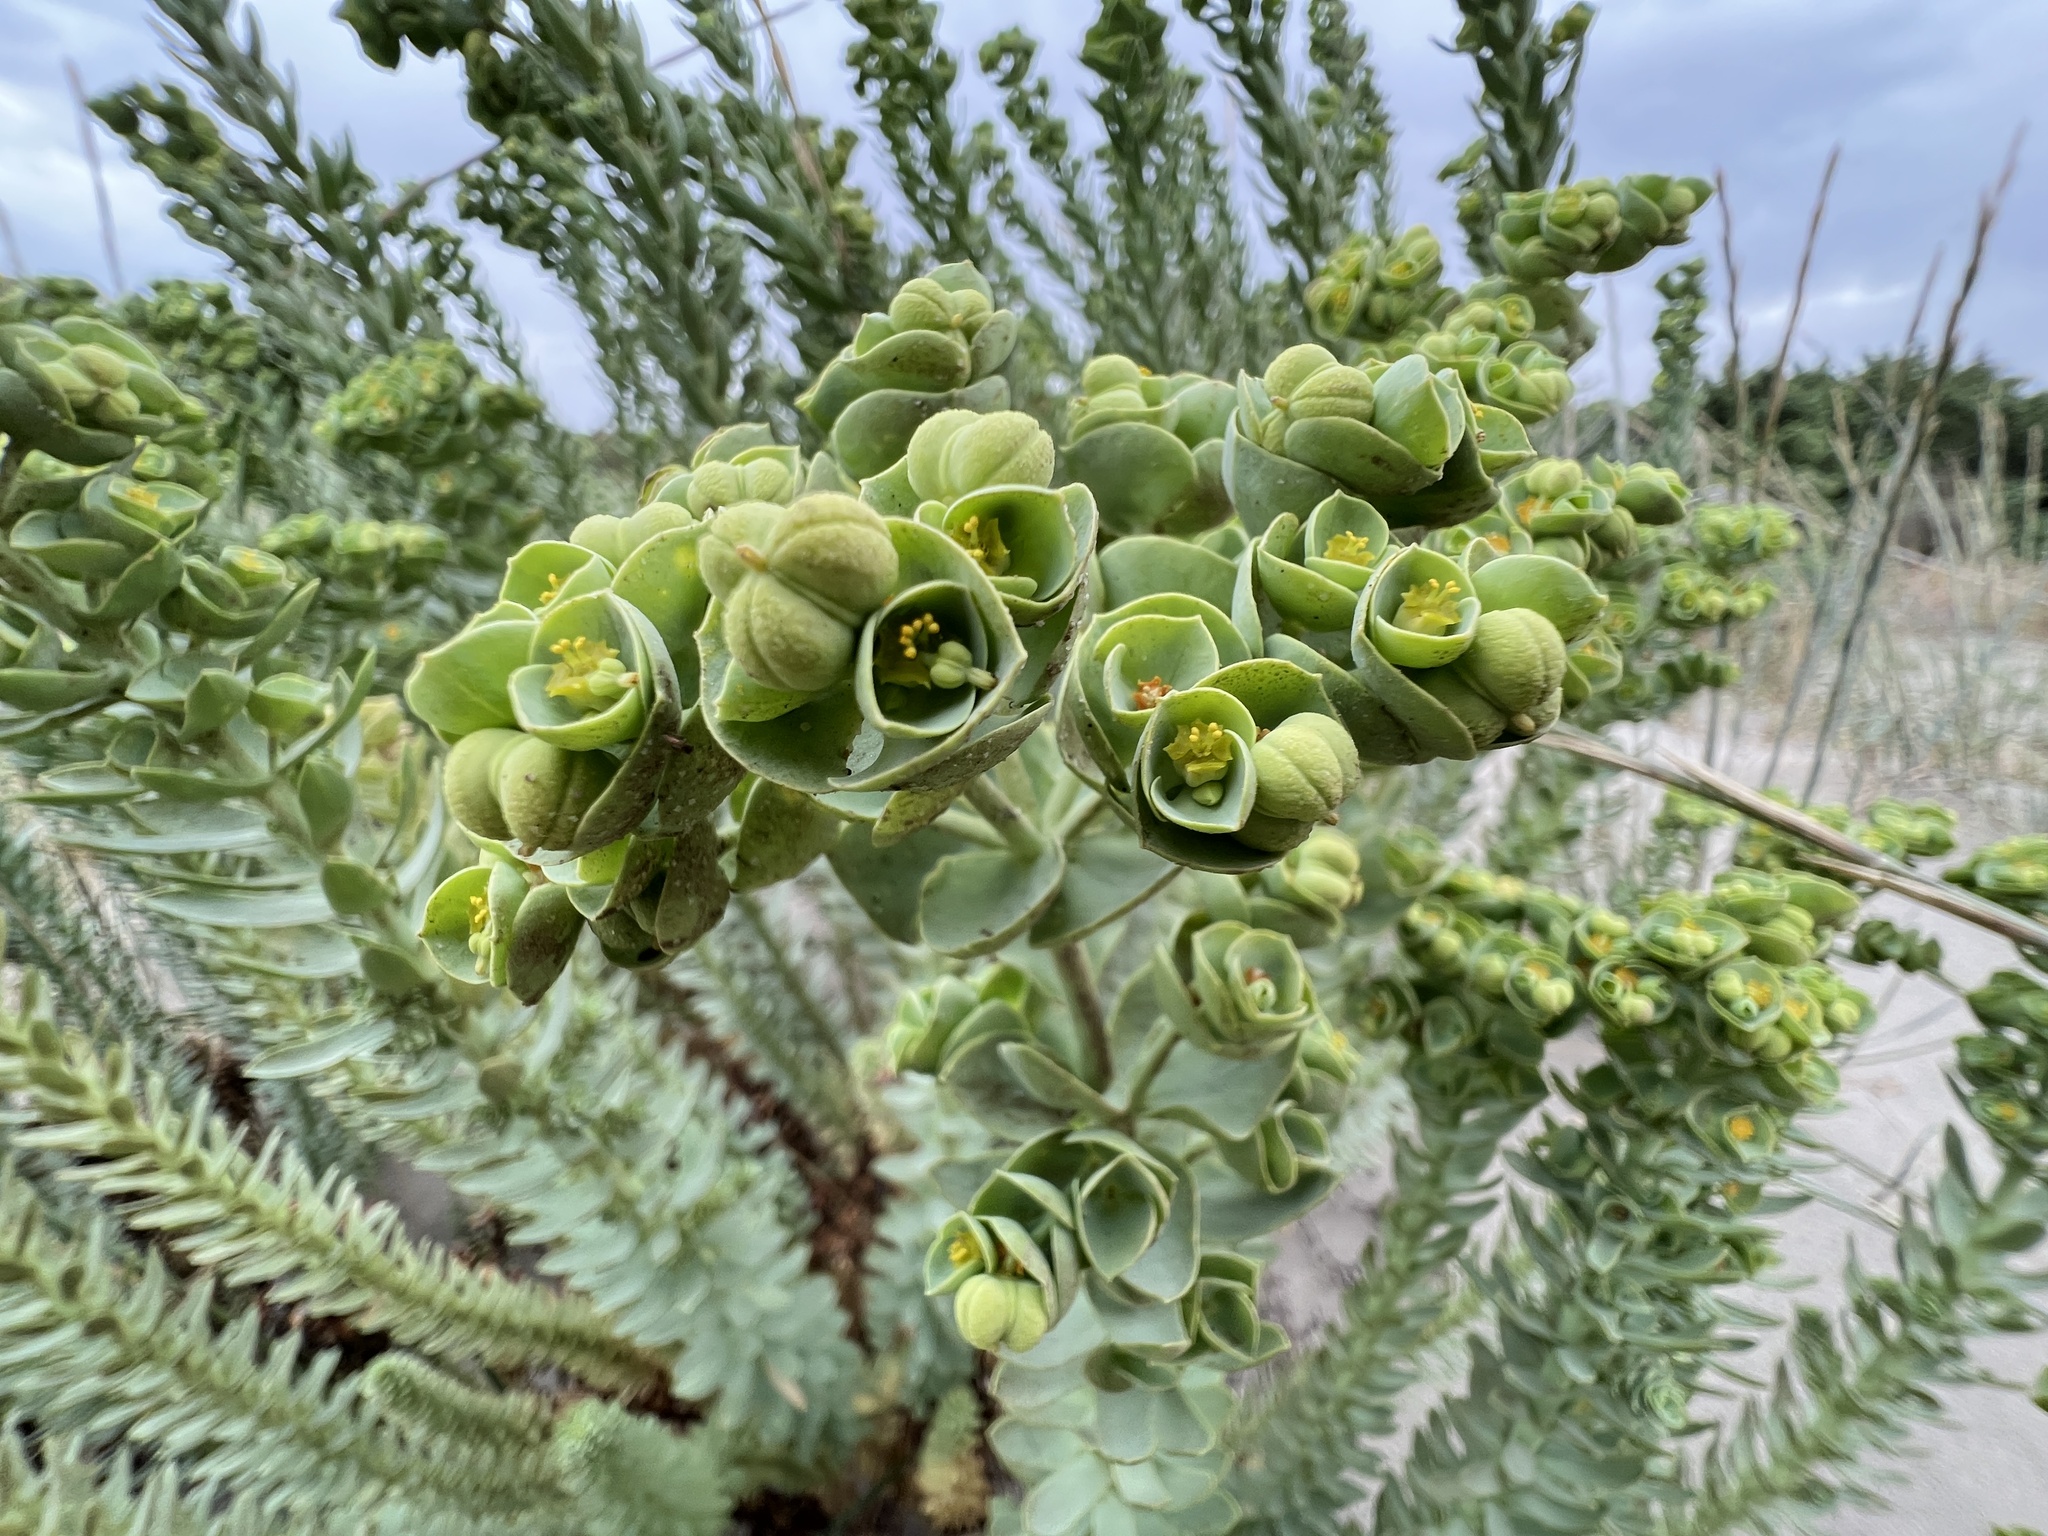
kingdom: Plantae
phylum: Tracheophyta
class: Magnoliopsida
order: Malpighiales
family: Euphorbiaceae
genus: Euphorbia
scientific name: Euphorbia paralias
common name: Sea spurge
